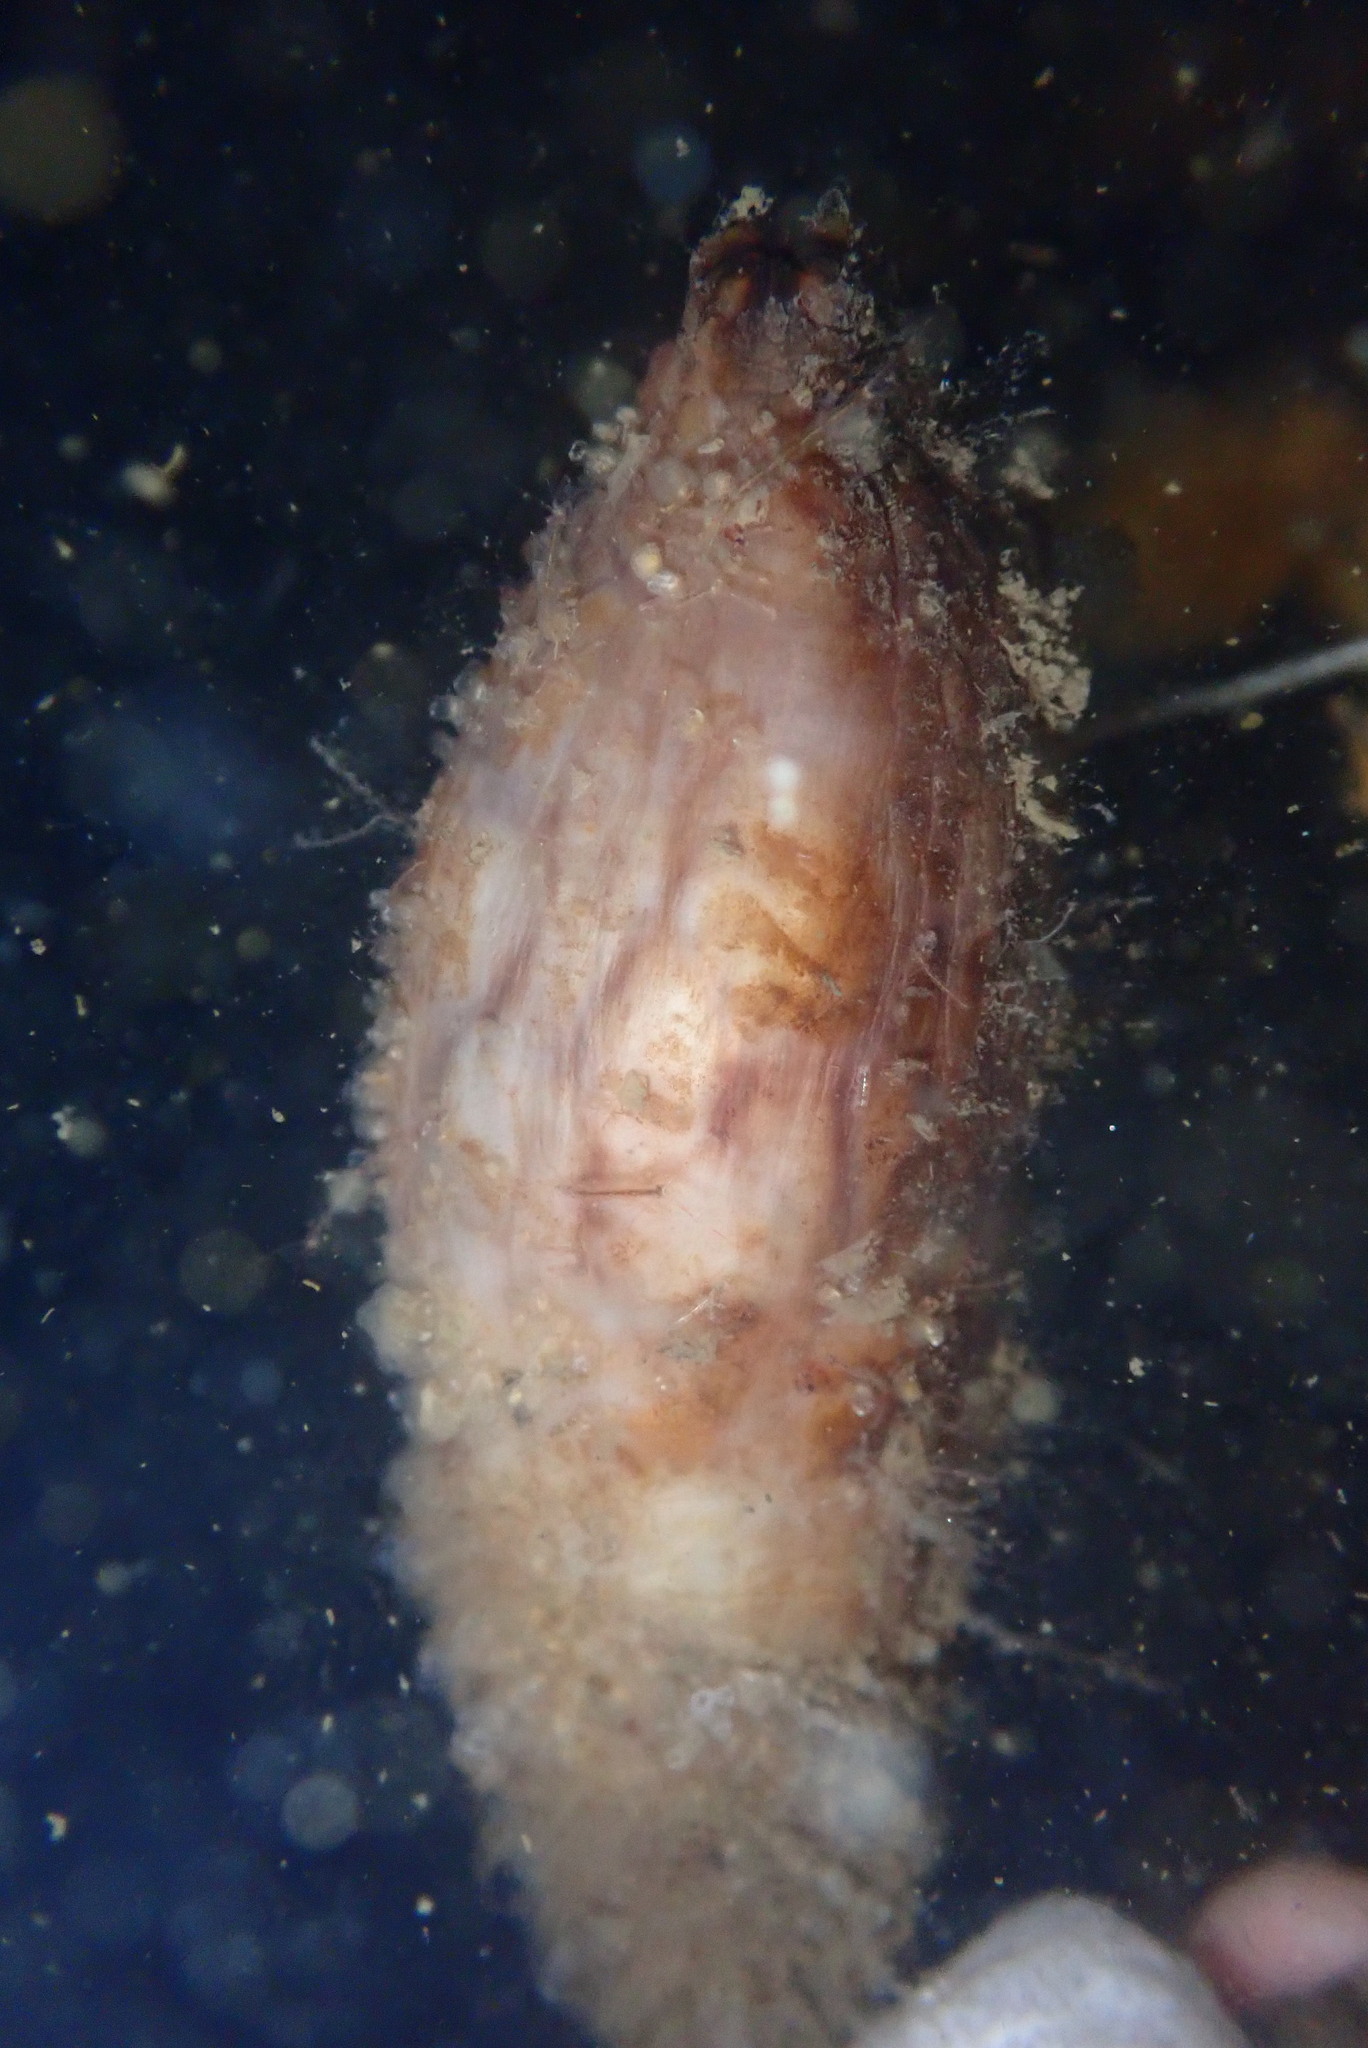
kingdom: Animalia
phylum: Chordata
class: Ascidiacea
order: Stolidobranchia
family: Styelidae
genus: Styela
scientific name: Styela clava
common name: Leathery sea squirt
